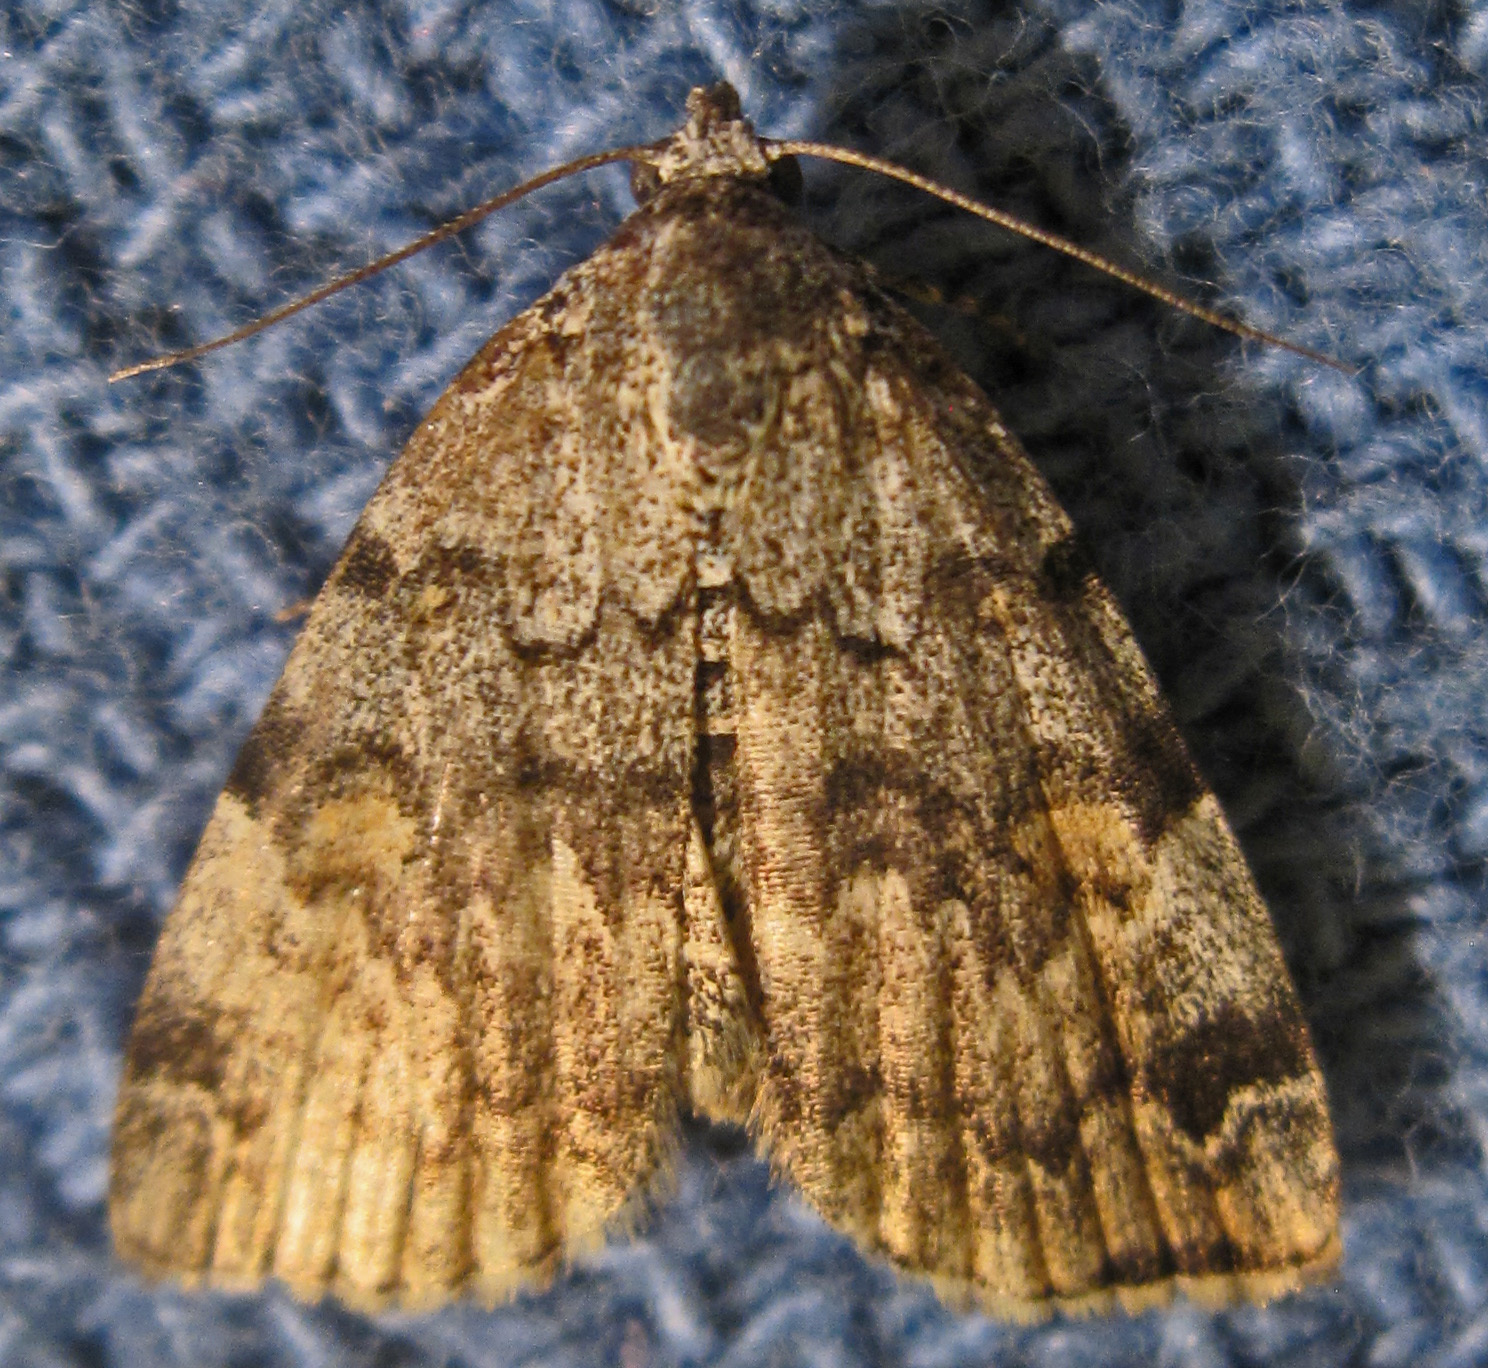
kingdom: Animalia
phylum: Arthropoda
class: Insecta
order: Lepidoptera
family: Erebidae
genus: Idia
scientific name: Idia americalis
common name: American idia moth
